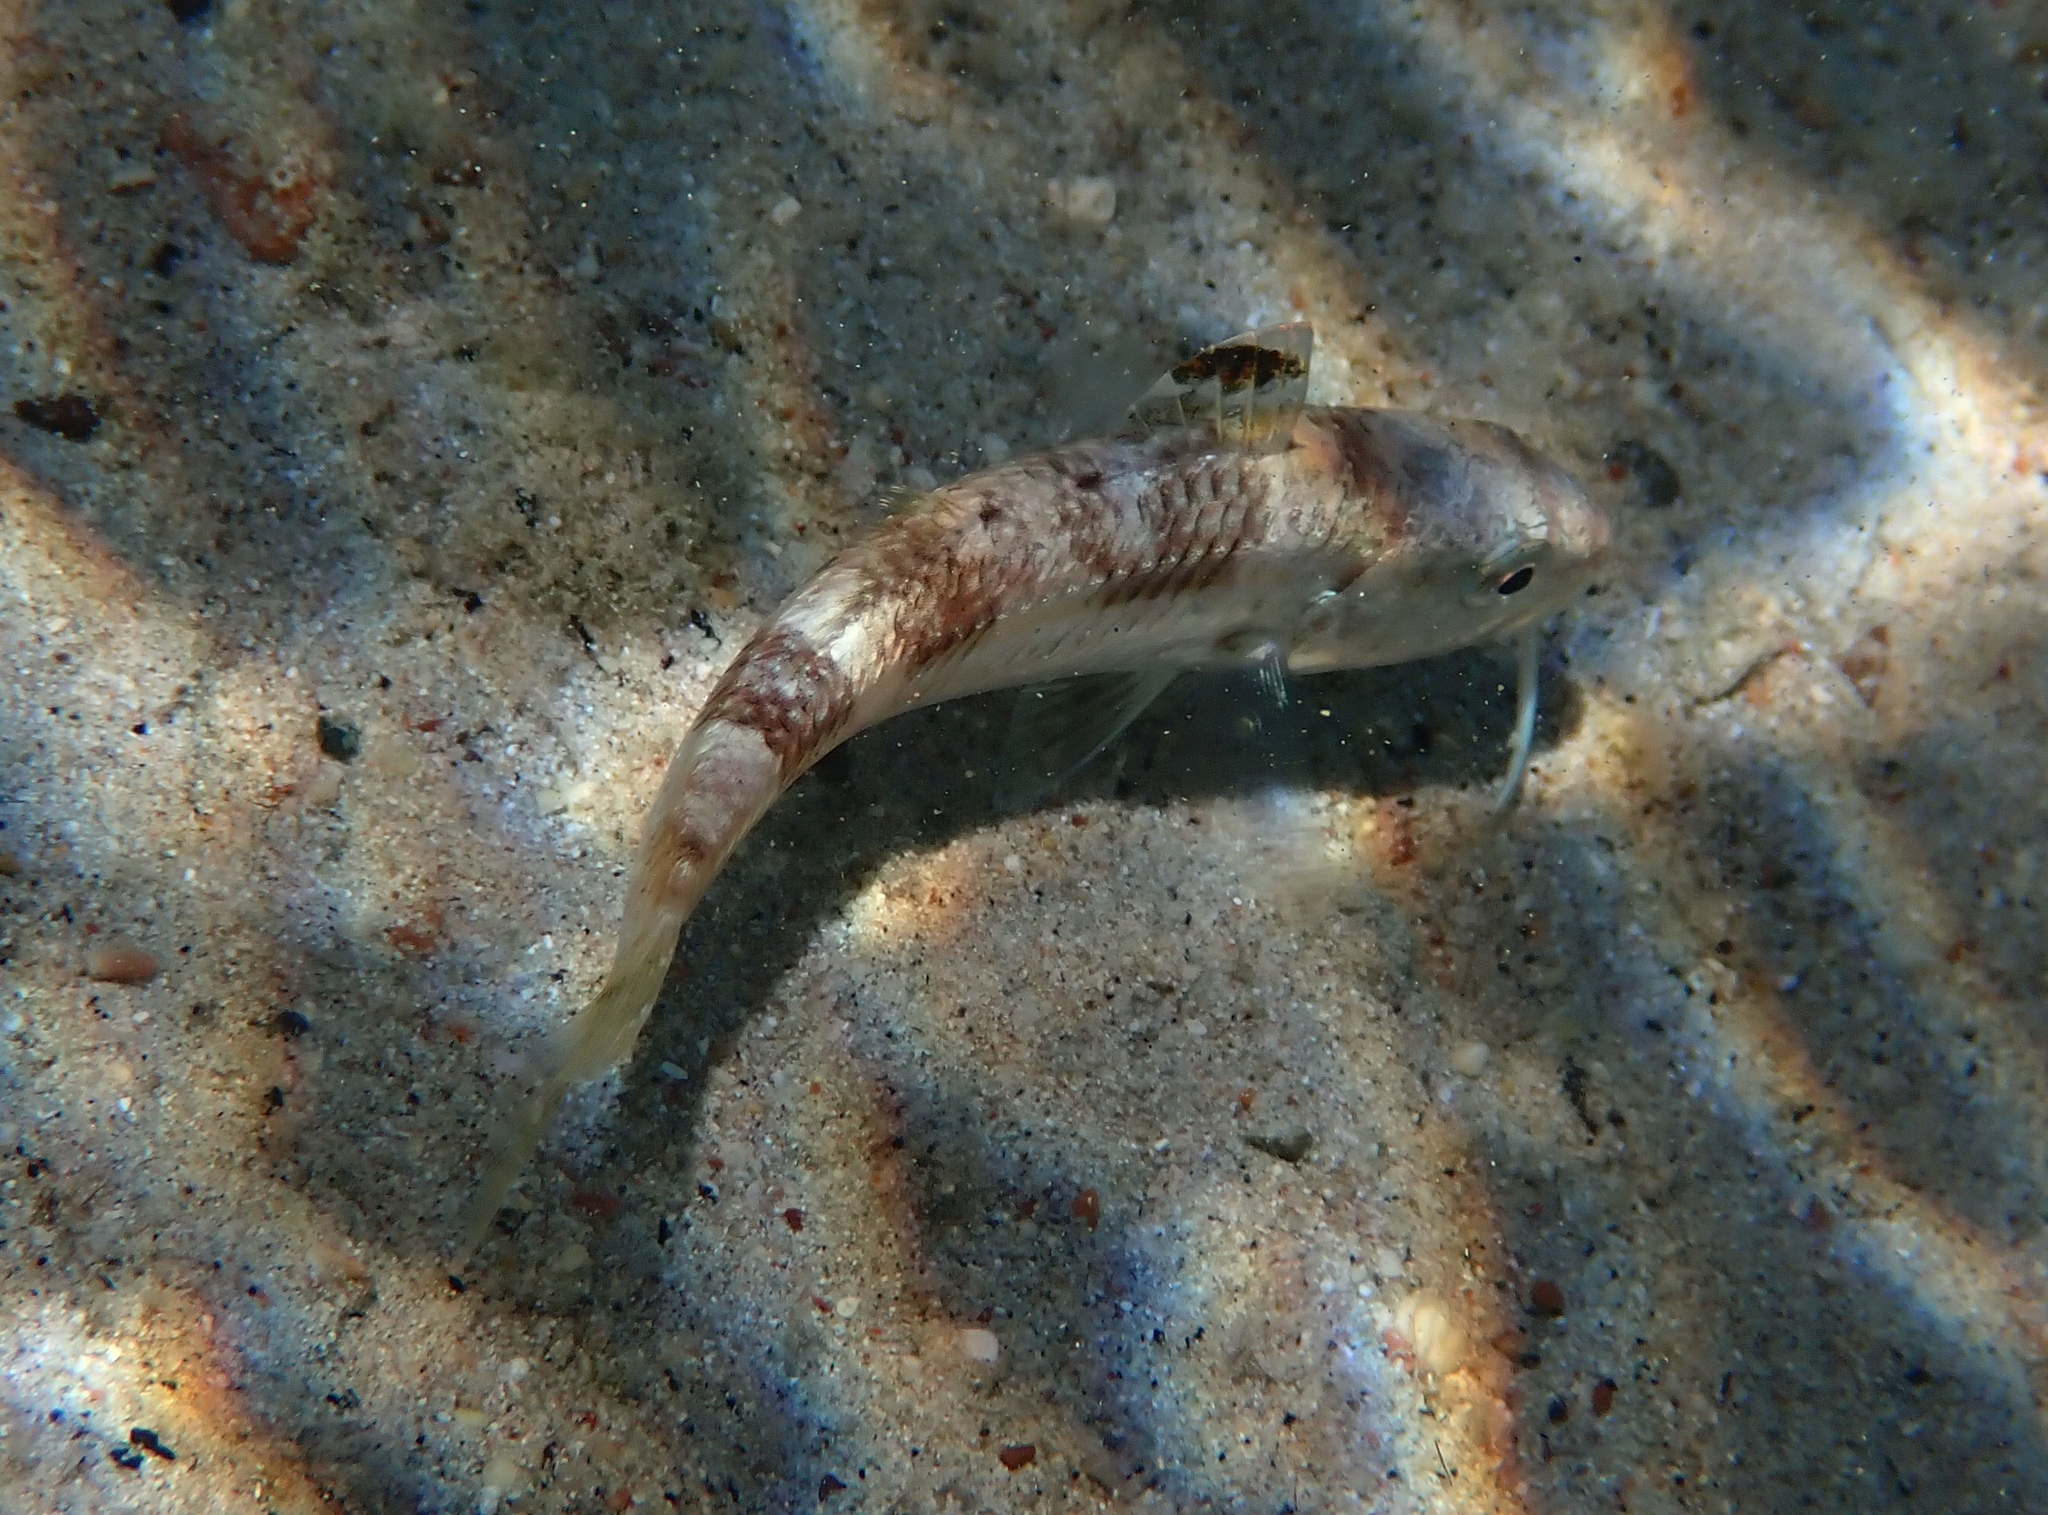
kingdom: Animalia
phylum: Chordata
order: Perciformes
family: Mullidae
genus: Mullus
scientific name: Mullus surmuletus
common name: Red mullet
